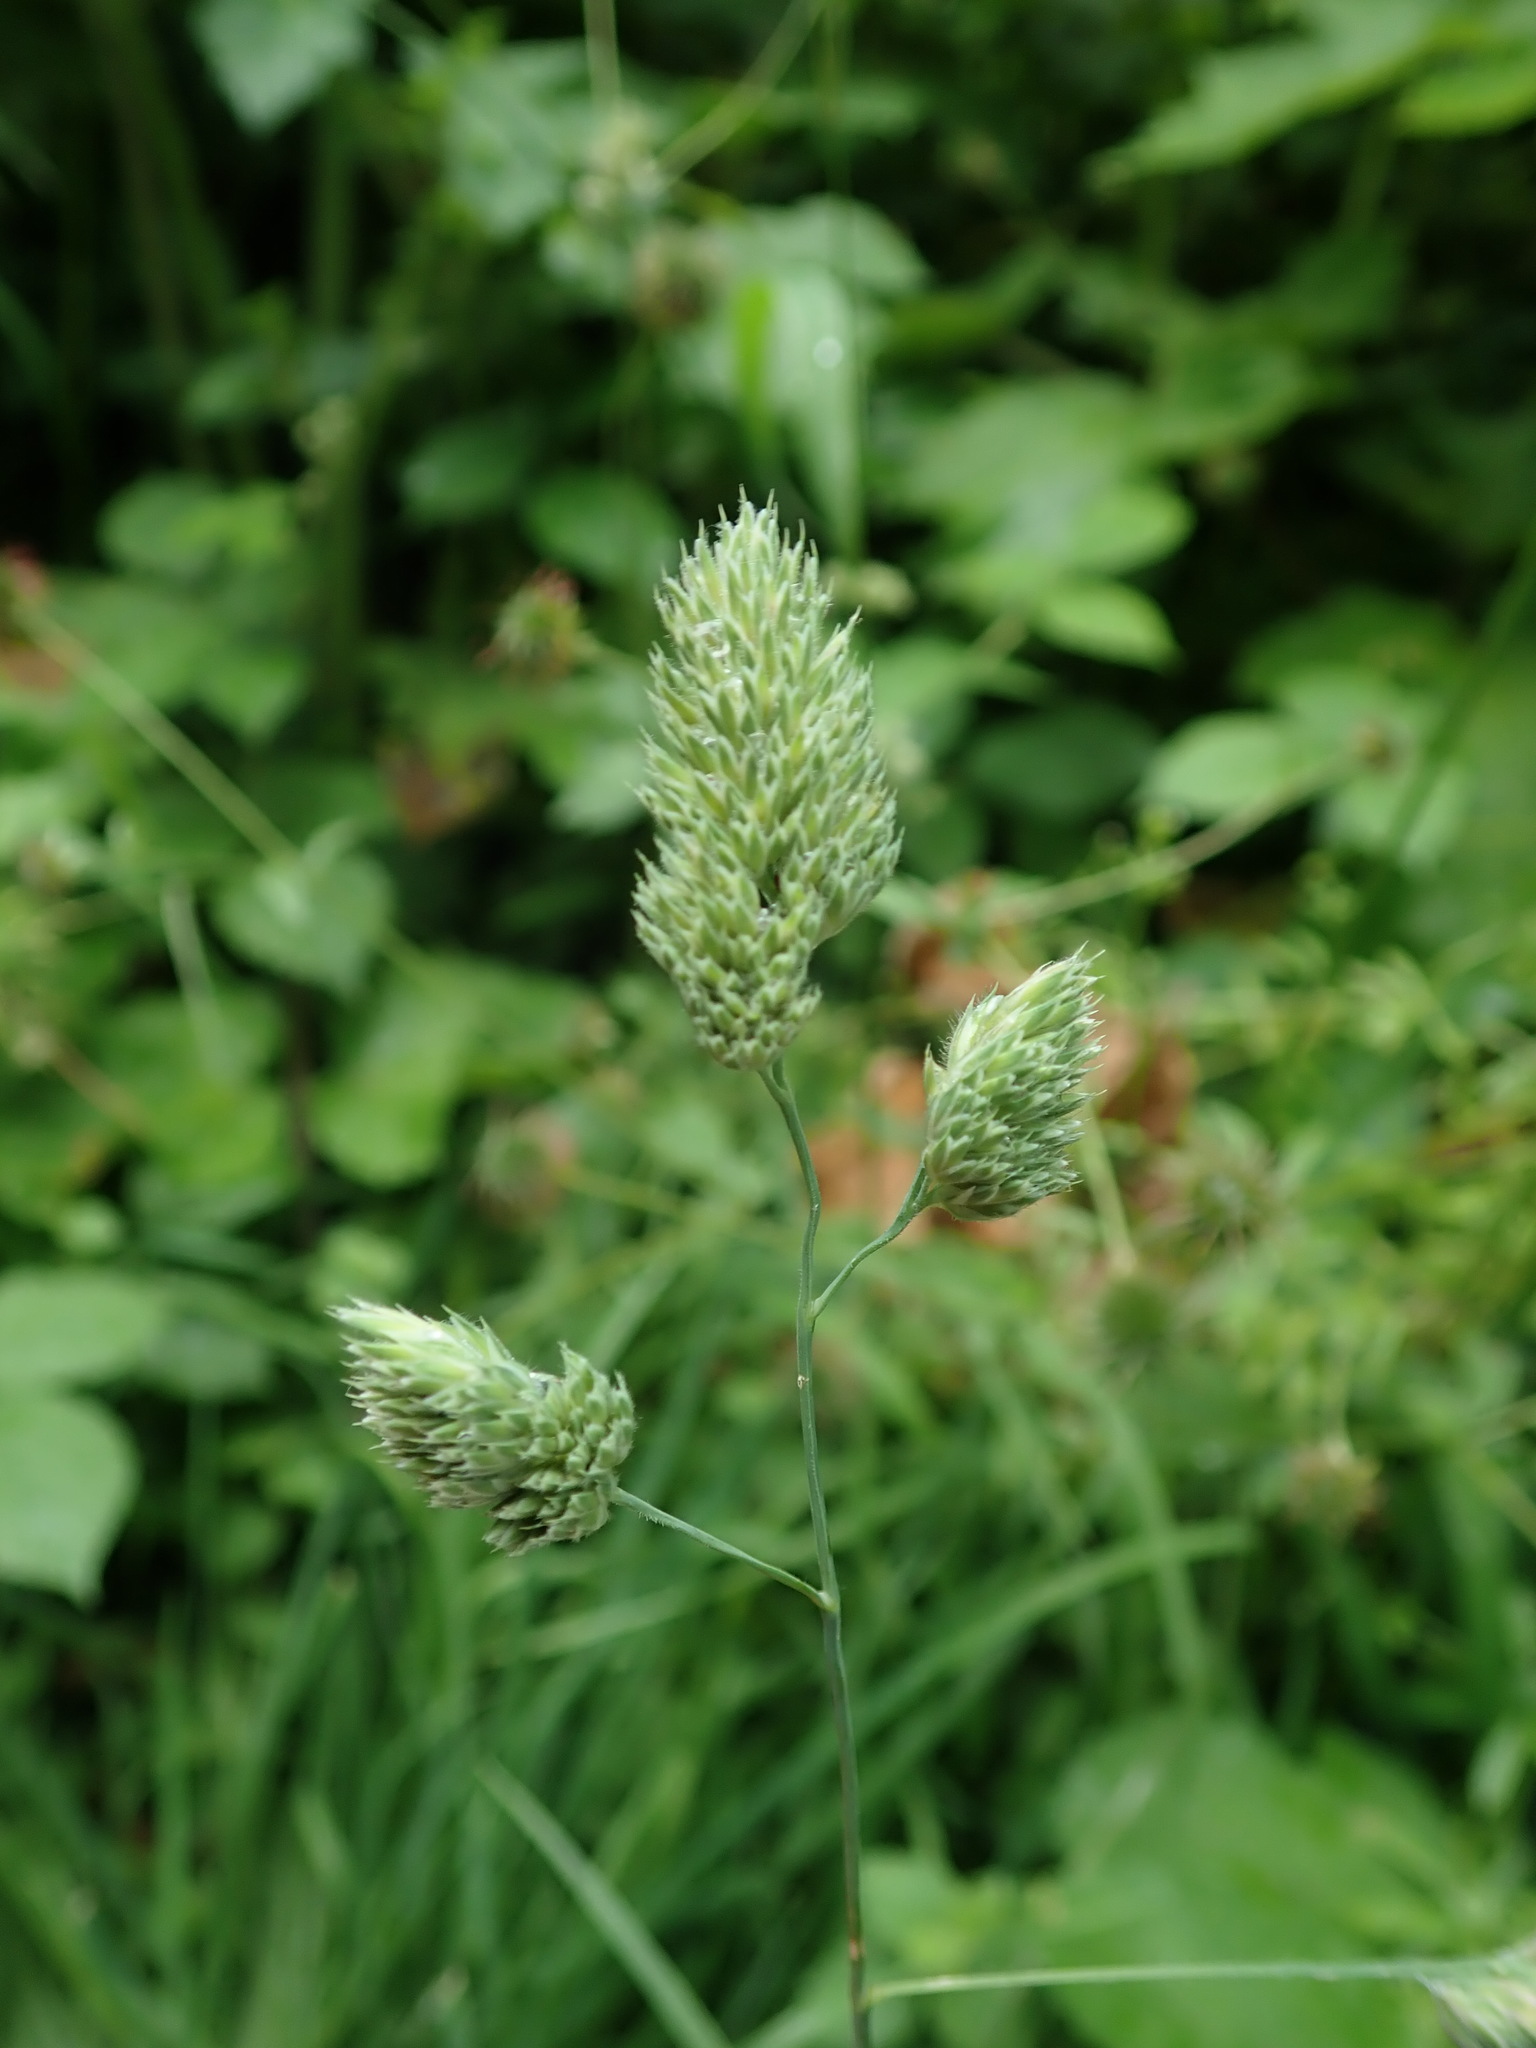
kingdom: Plantae
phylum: Tracheophyta
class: Liliopsida
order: Poales
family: Poaceae
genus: Dactylis
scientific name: Dactylis glomerata
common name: Orchardgrass
